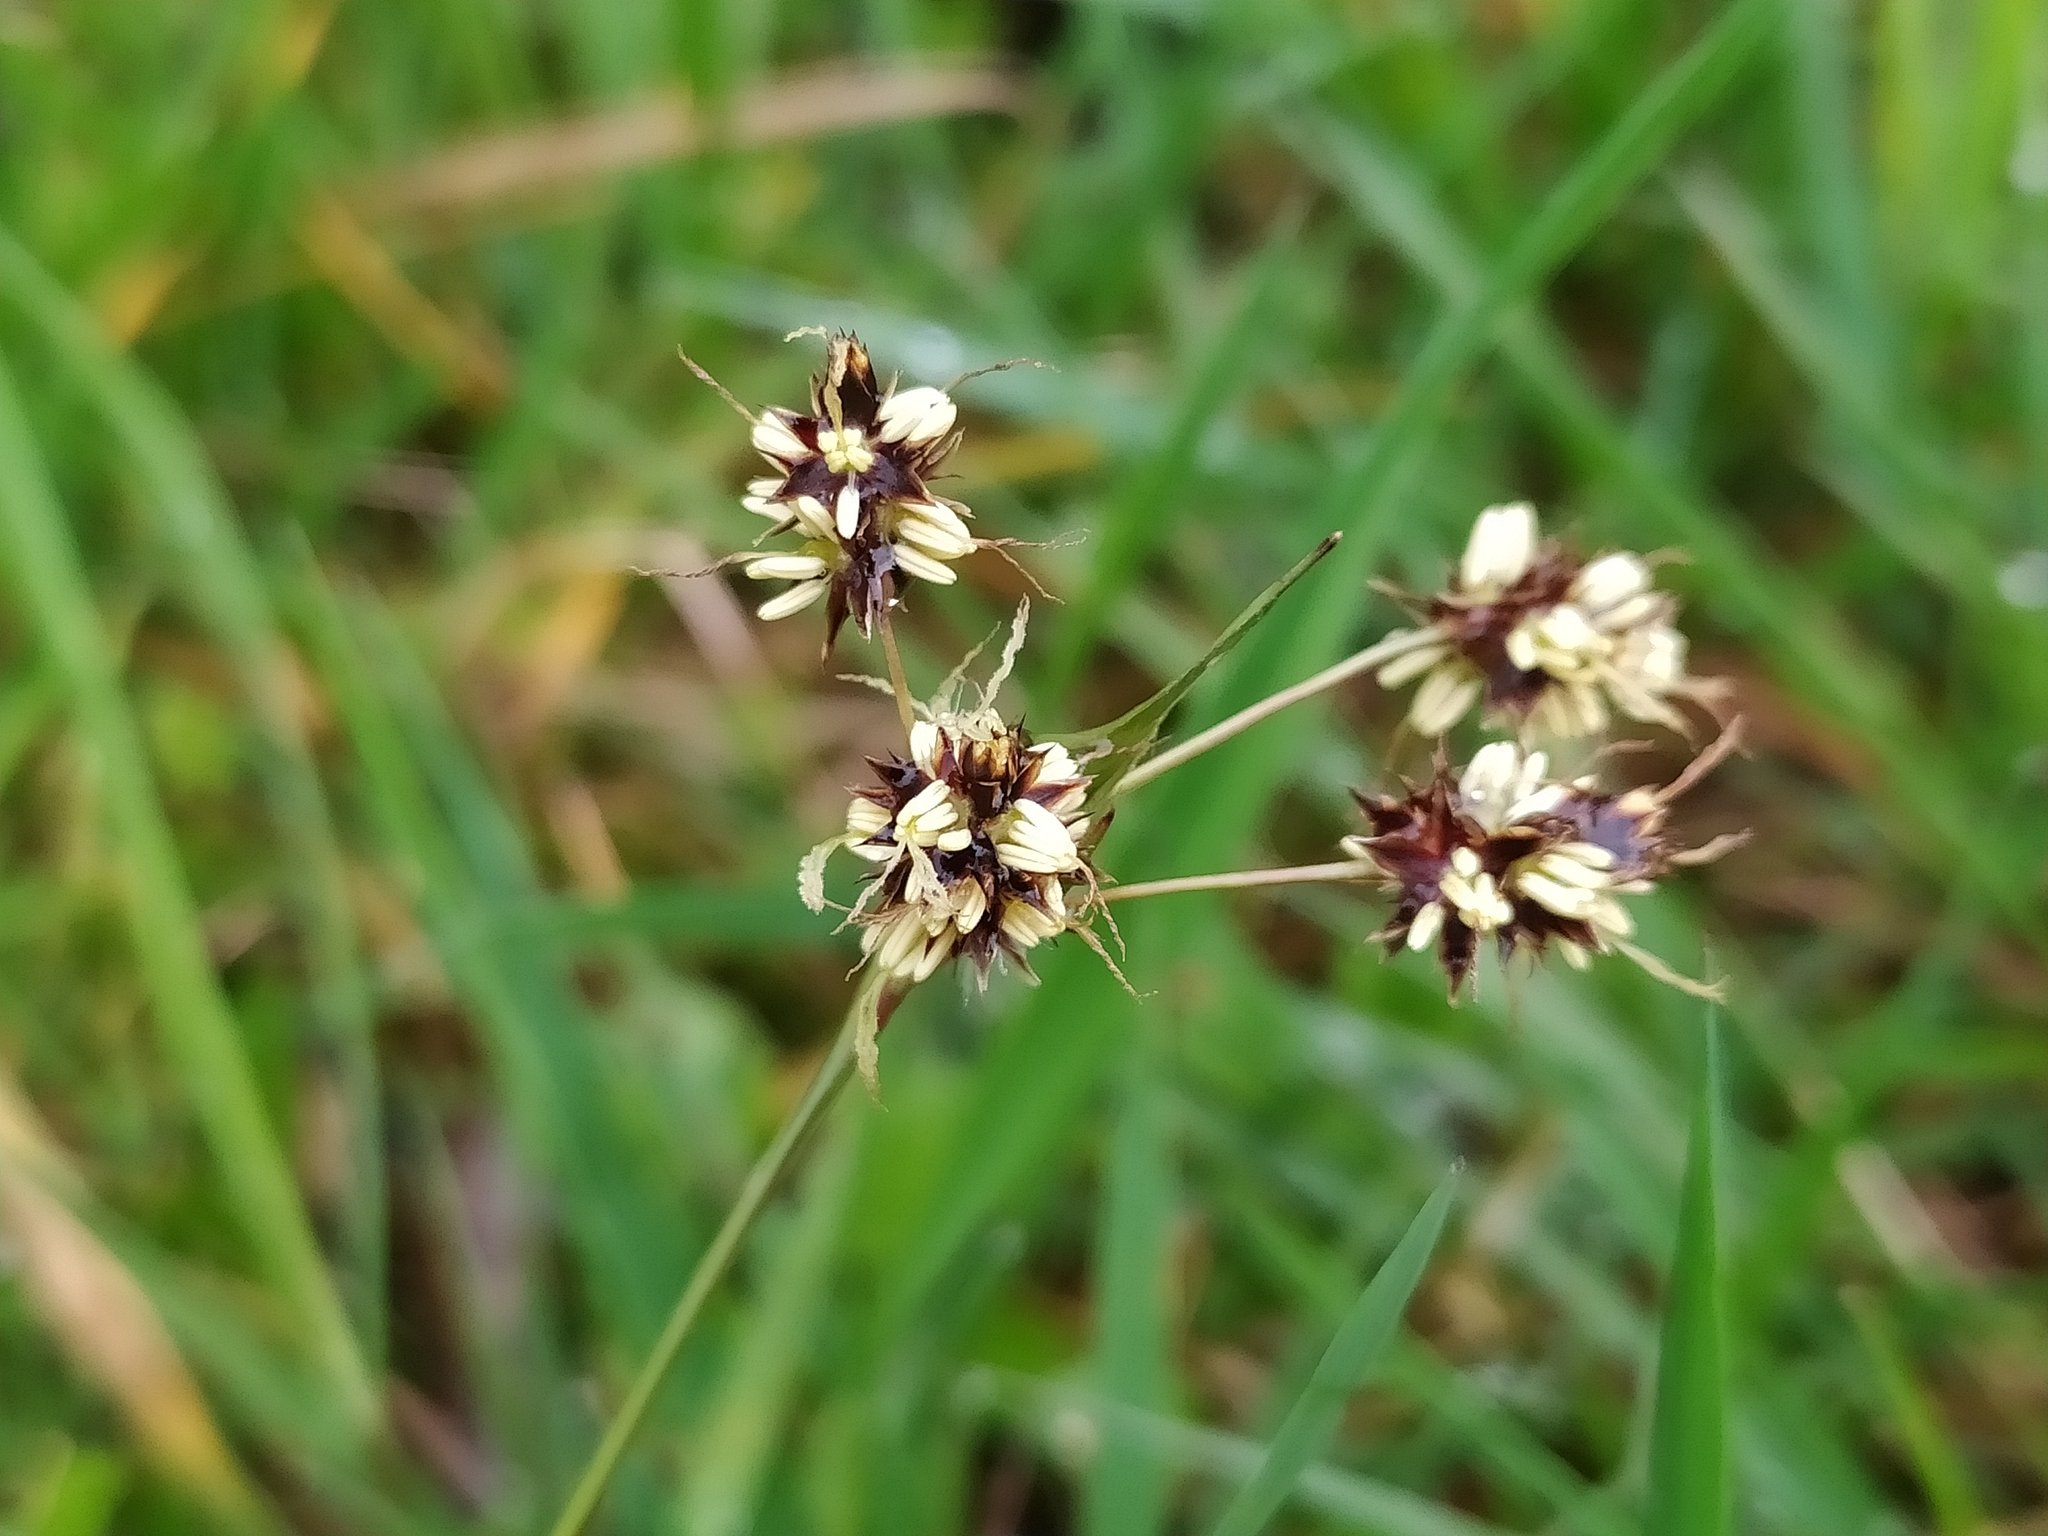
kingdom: Plantae
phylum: Tracheophyta
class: Liliopsida
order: Poales
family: Juncaceae
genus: Luzula
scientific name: Luzula campestris
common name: Field wood-rush
